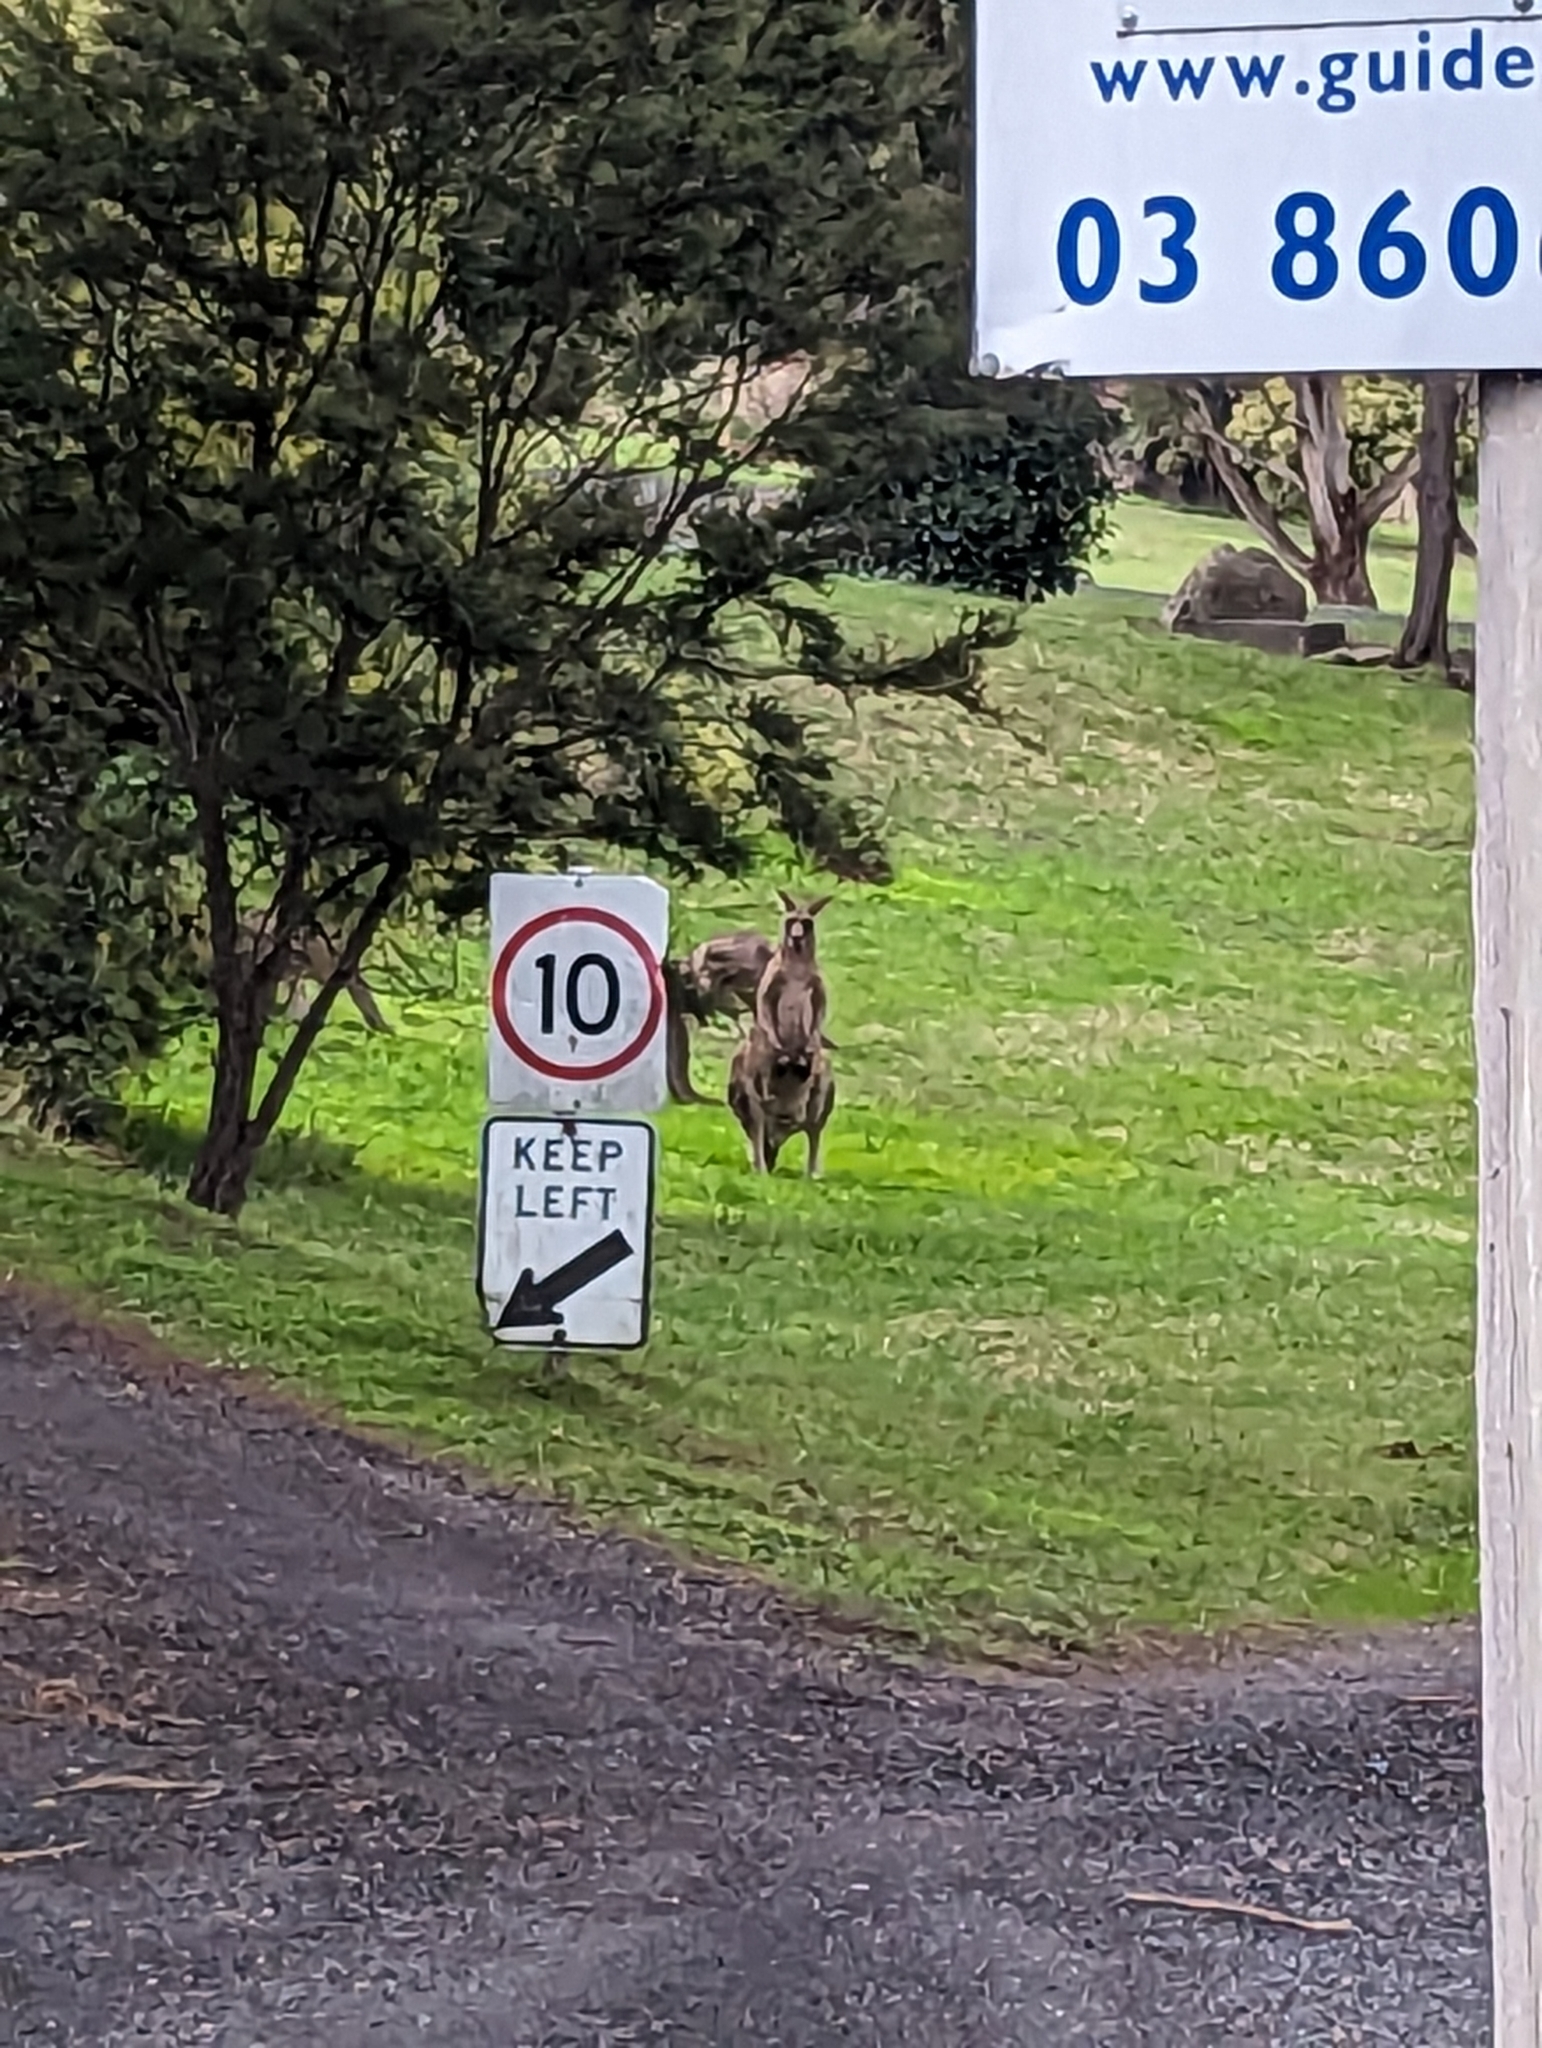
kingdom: Animalia
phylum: Chordata
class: Mammalia
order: Diprotodontia
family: Macropodidae
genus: Macropus
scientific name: Macropus giganteus
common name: Eastern grey kangaroo
